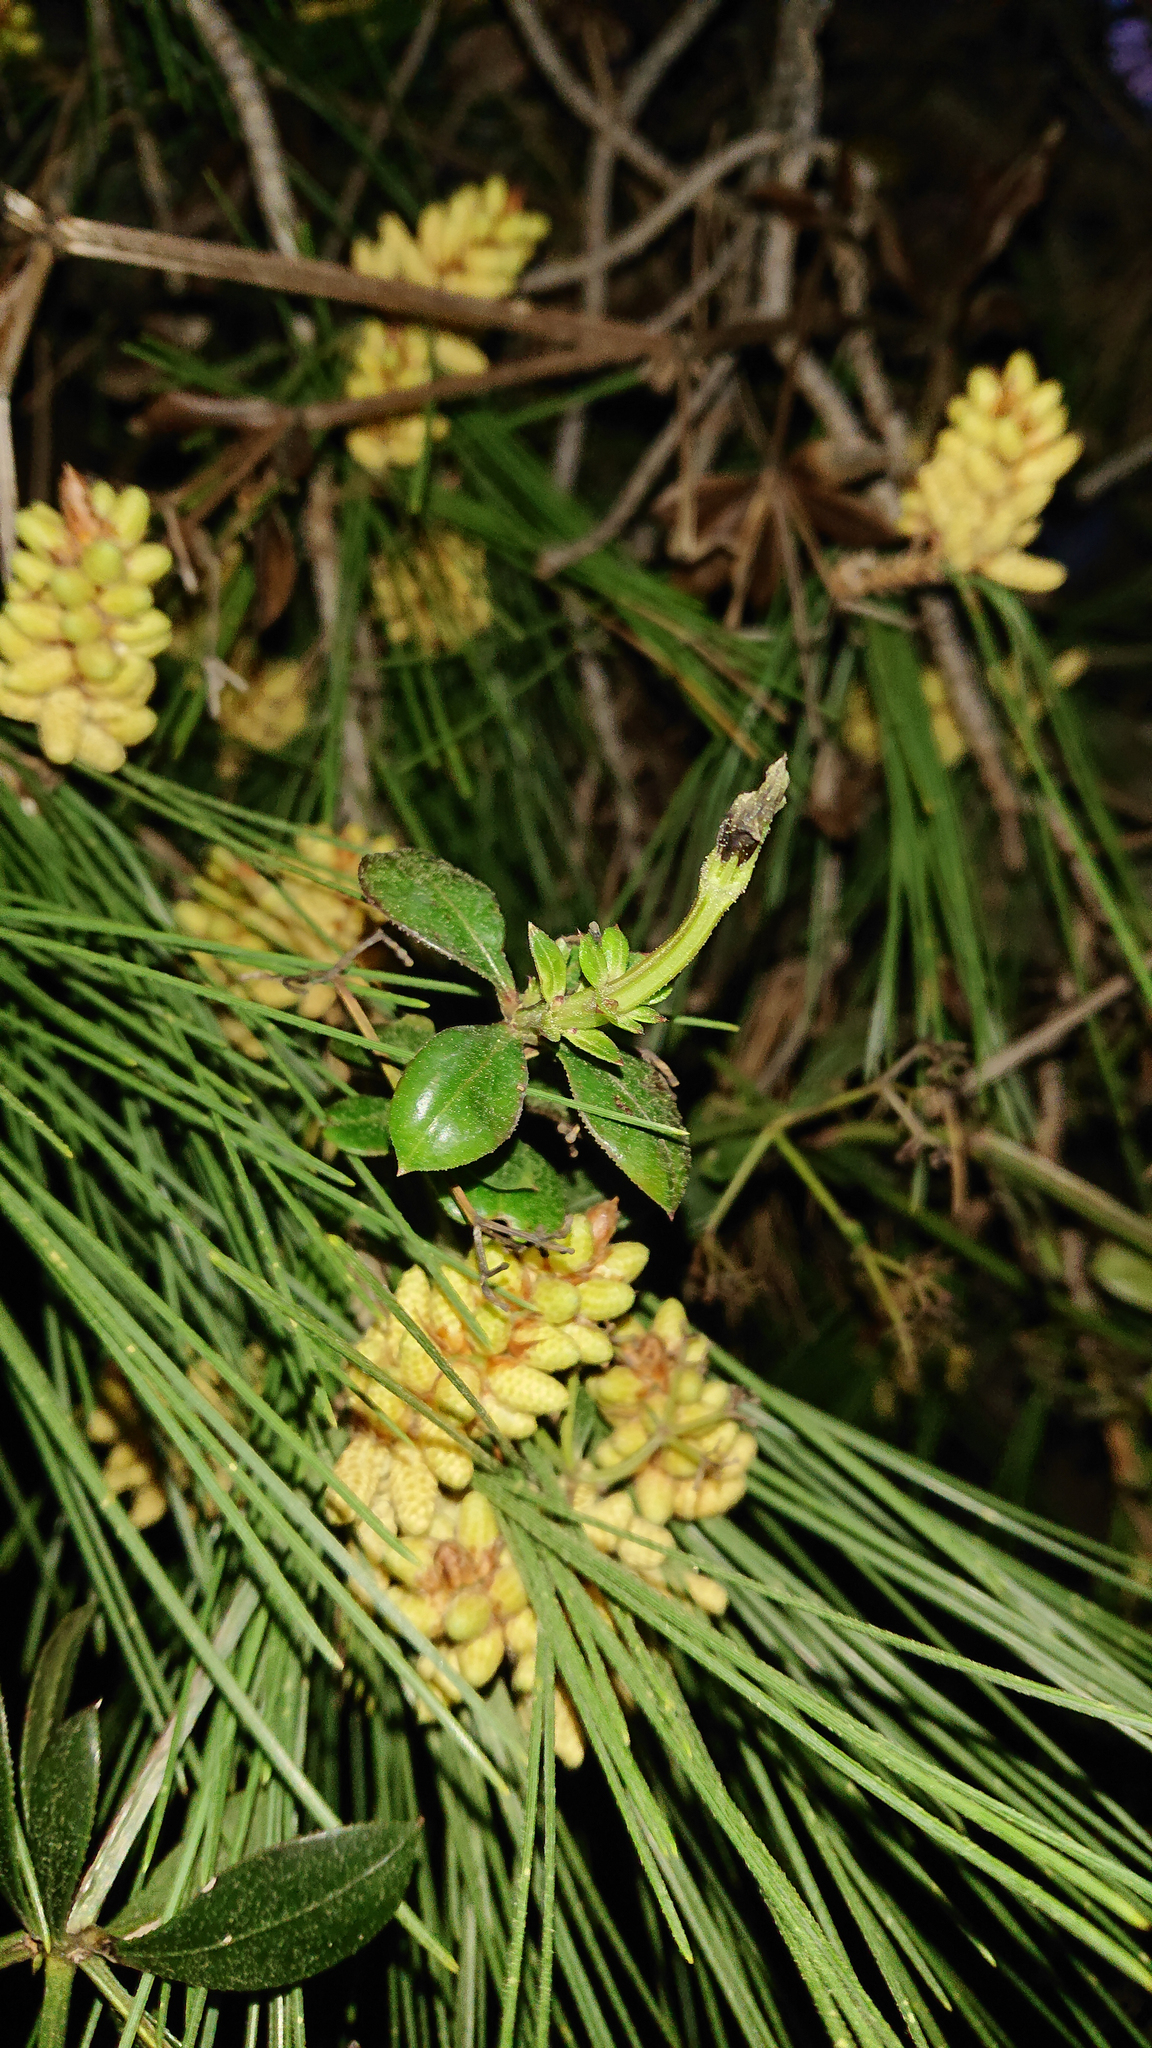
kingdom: Plantae
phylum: Tracheophyta
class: Magnoliopsida
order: Gentianales
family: Rubiaceae
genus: Rubia
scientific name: Rubia peregrina
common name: Wild madder
